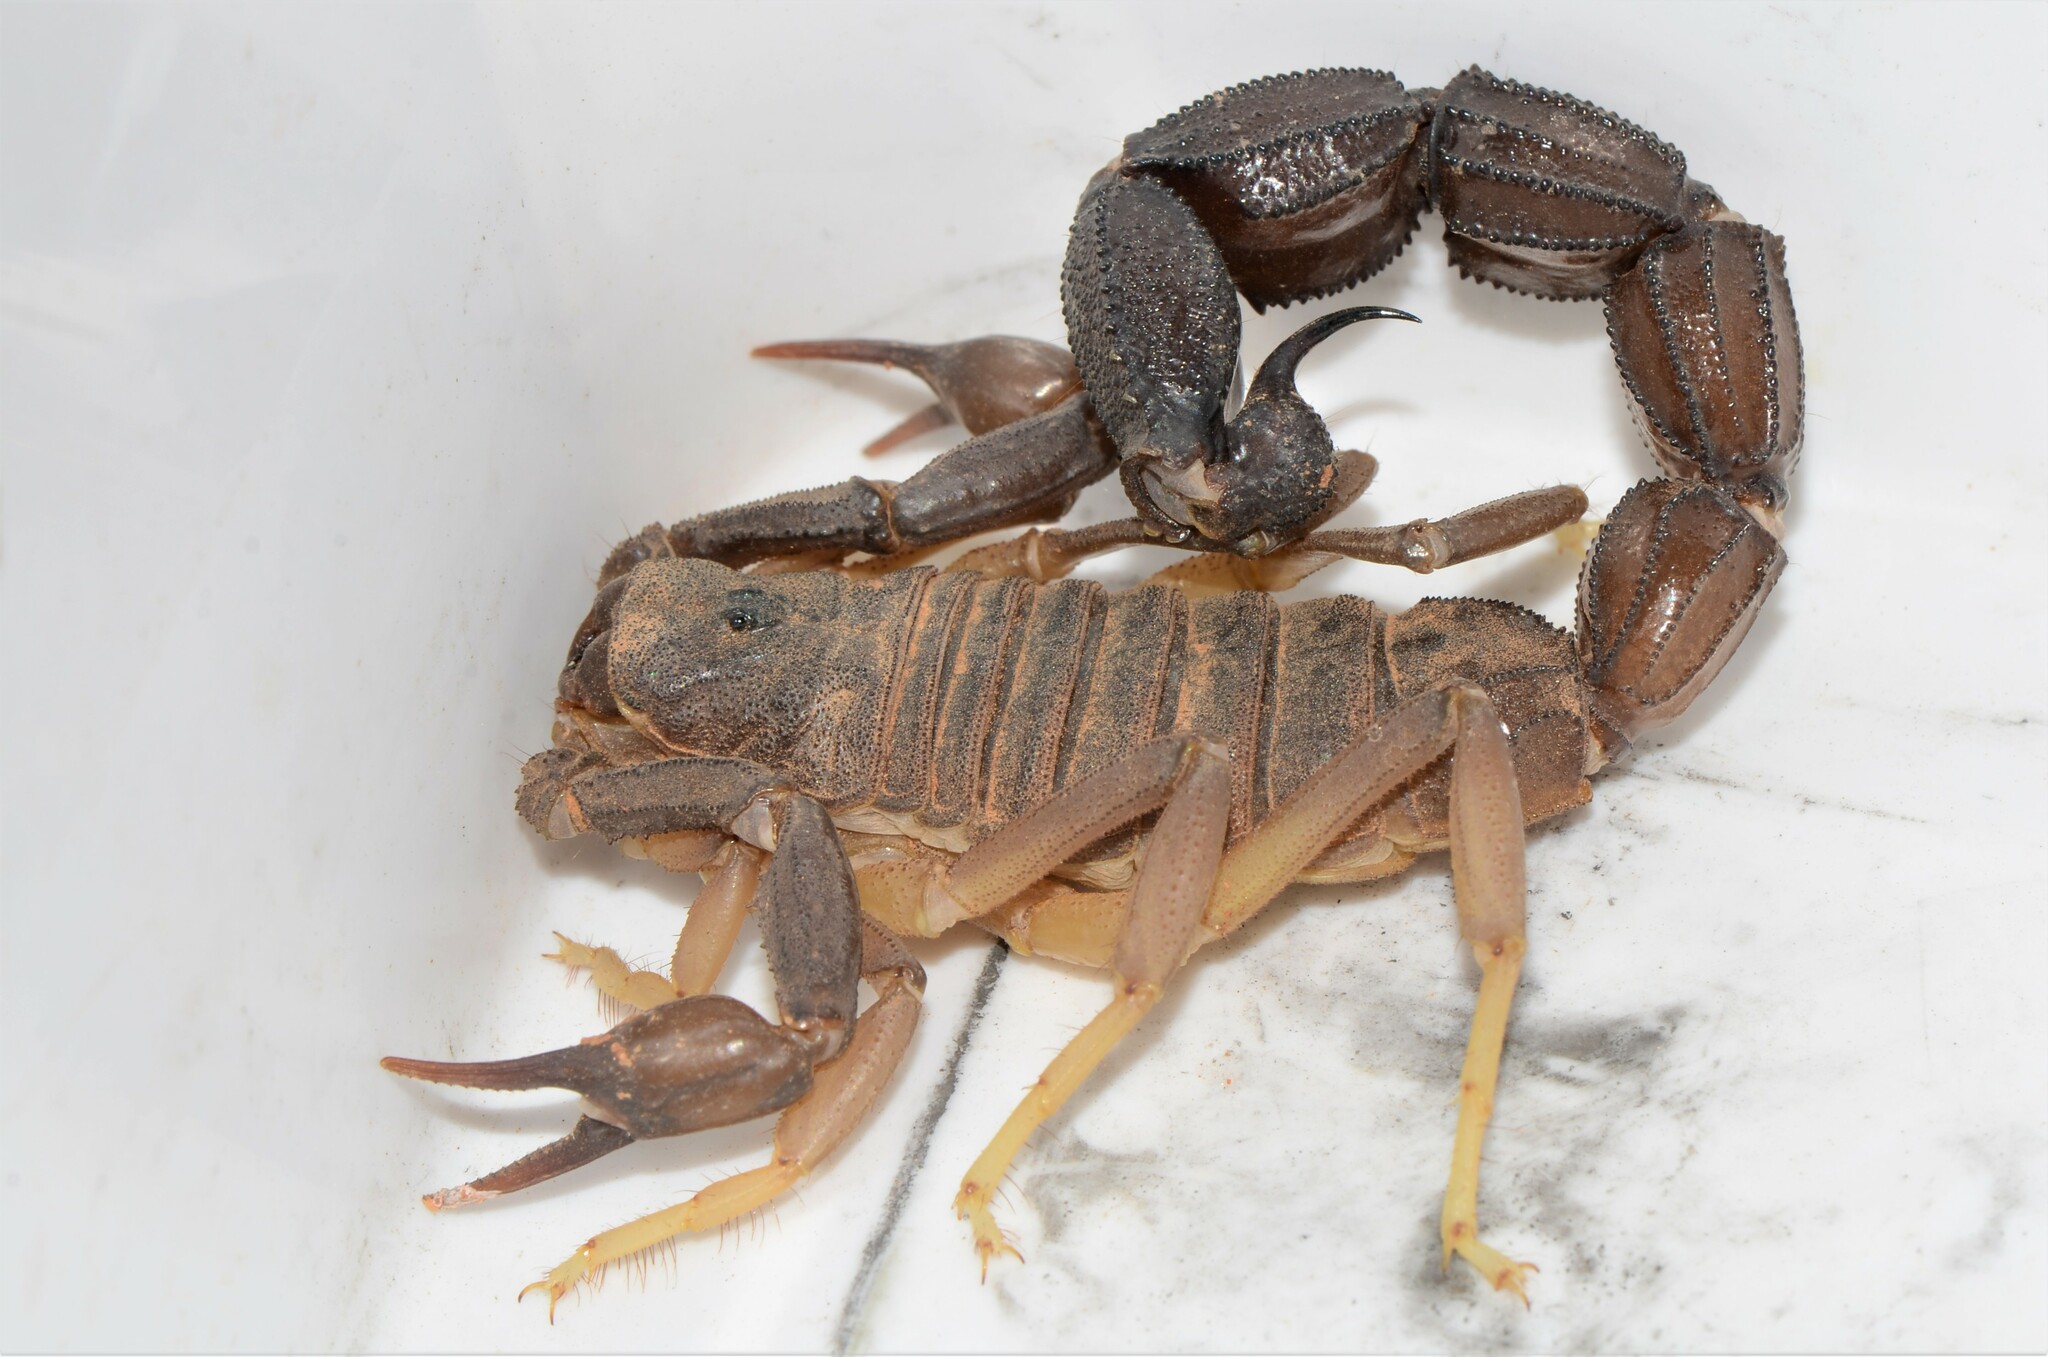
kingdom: Animalia
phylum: Arthropoda
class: Arachnida
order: Scorpiones
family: Buthidae
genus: Parabuthus
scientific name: Parabuthus granulatus
